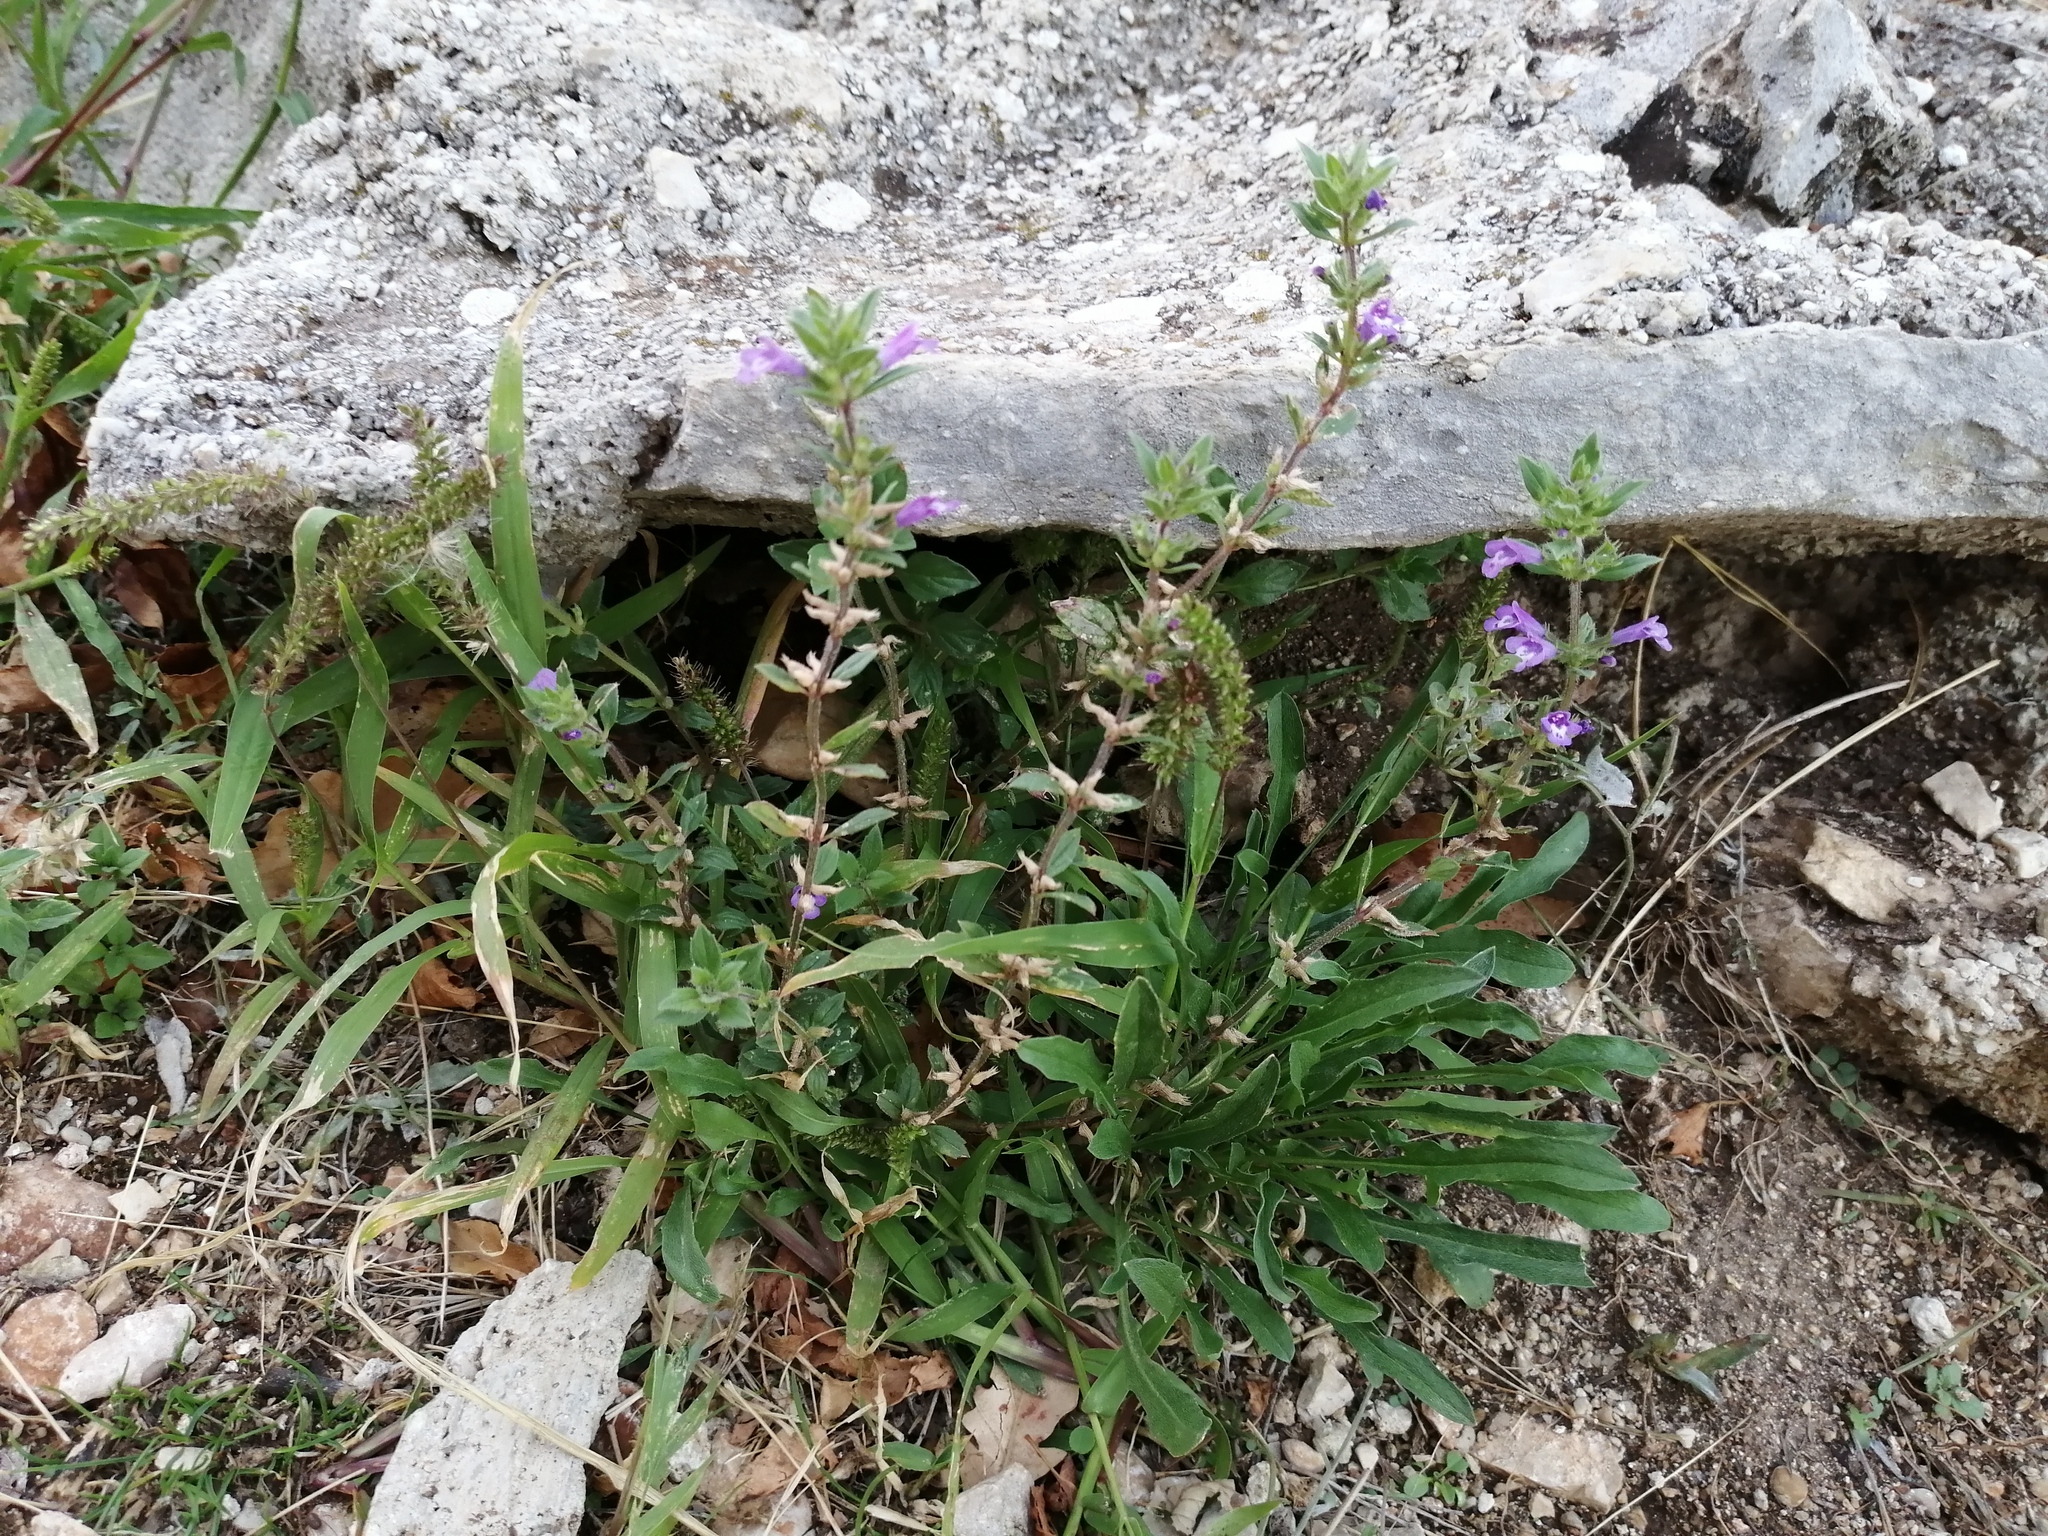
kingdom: Plantae
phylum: Tracheophyta
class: Magnoliopsida
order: Lamiales
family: Lamiaceae
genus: Clinopodium
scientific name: Clinopodium acinos
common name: Basil thyme
